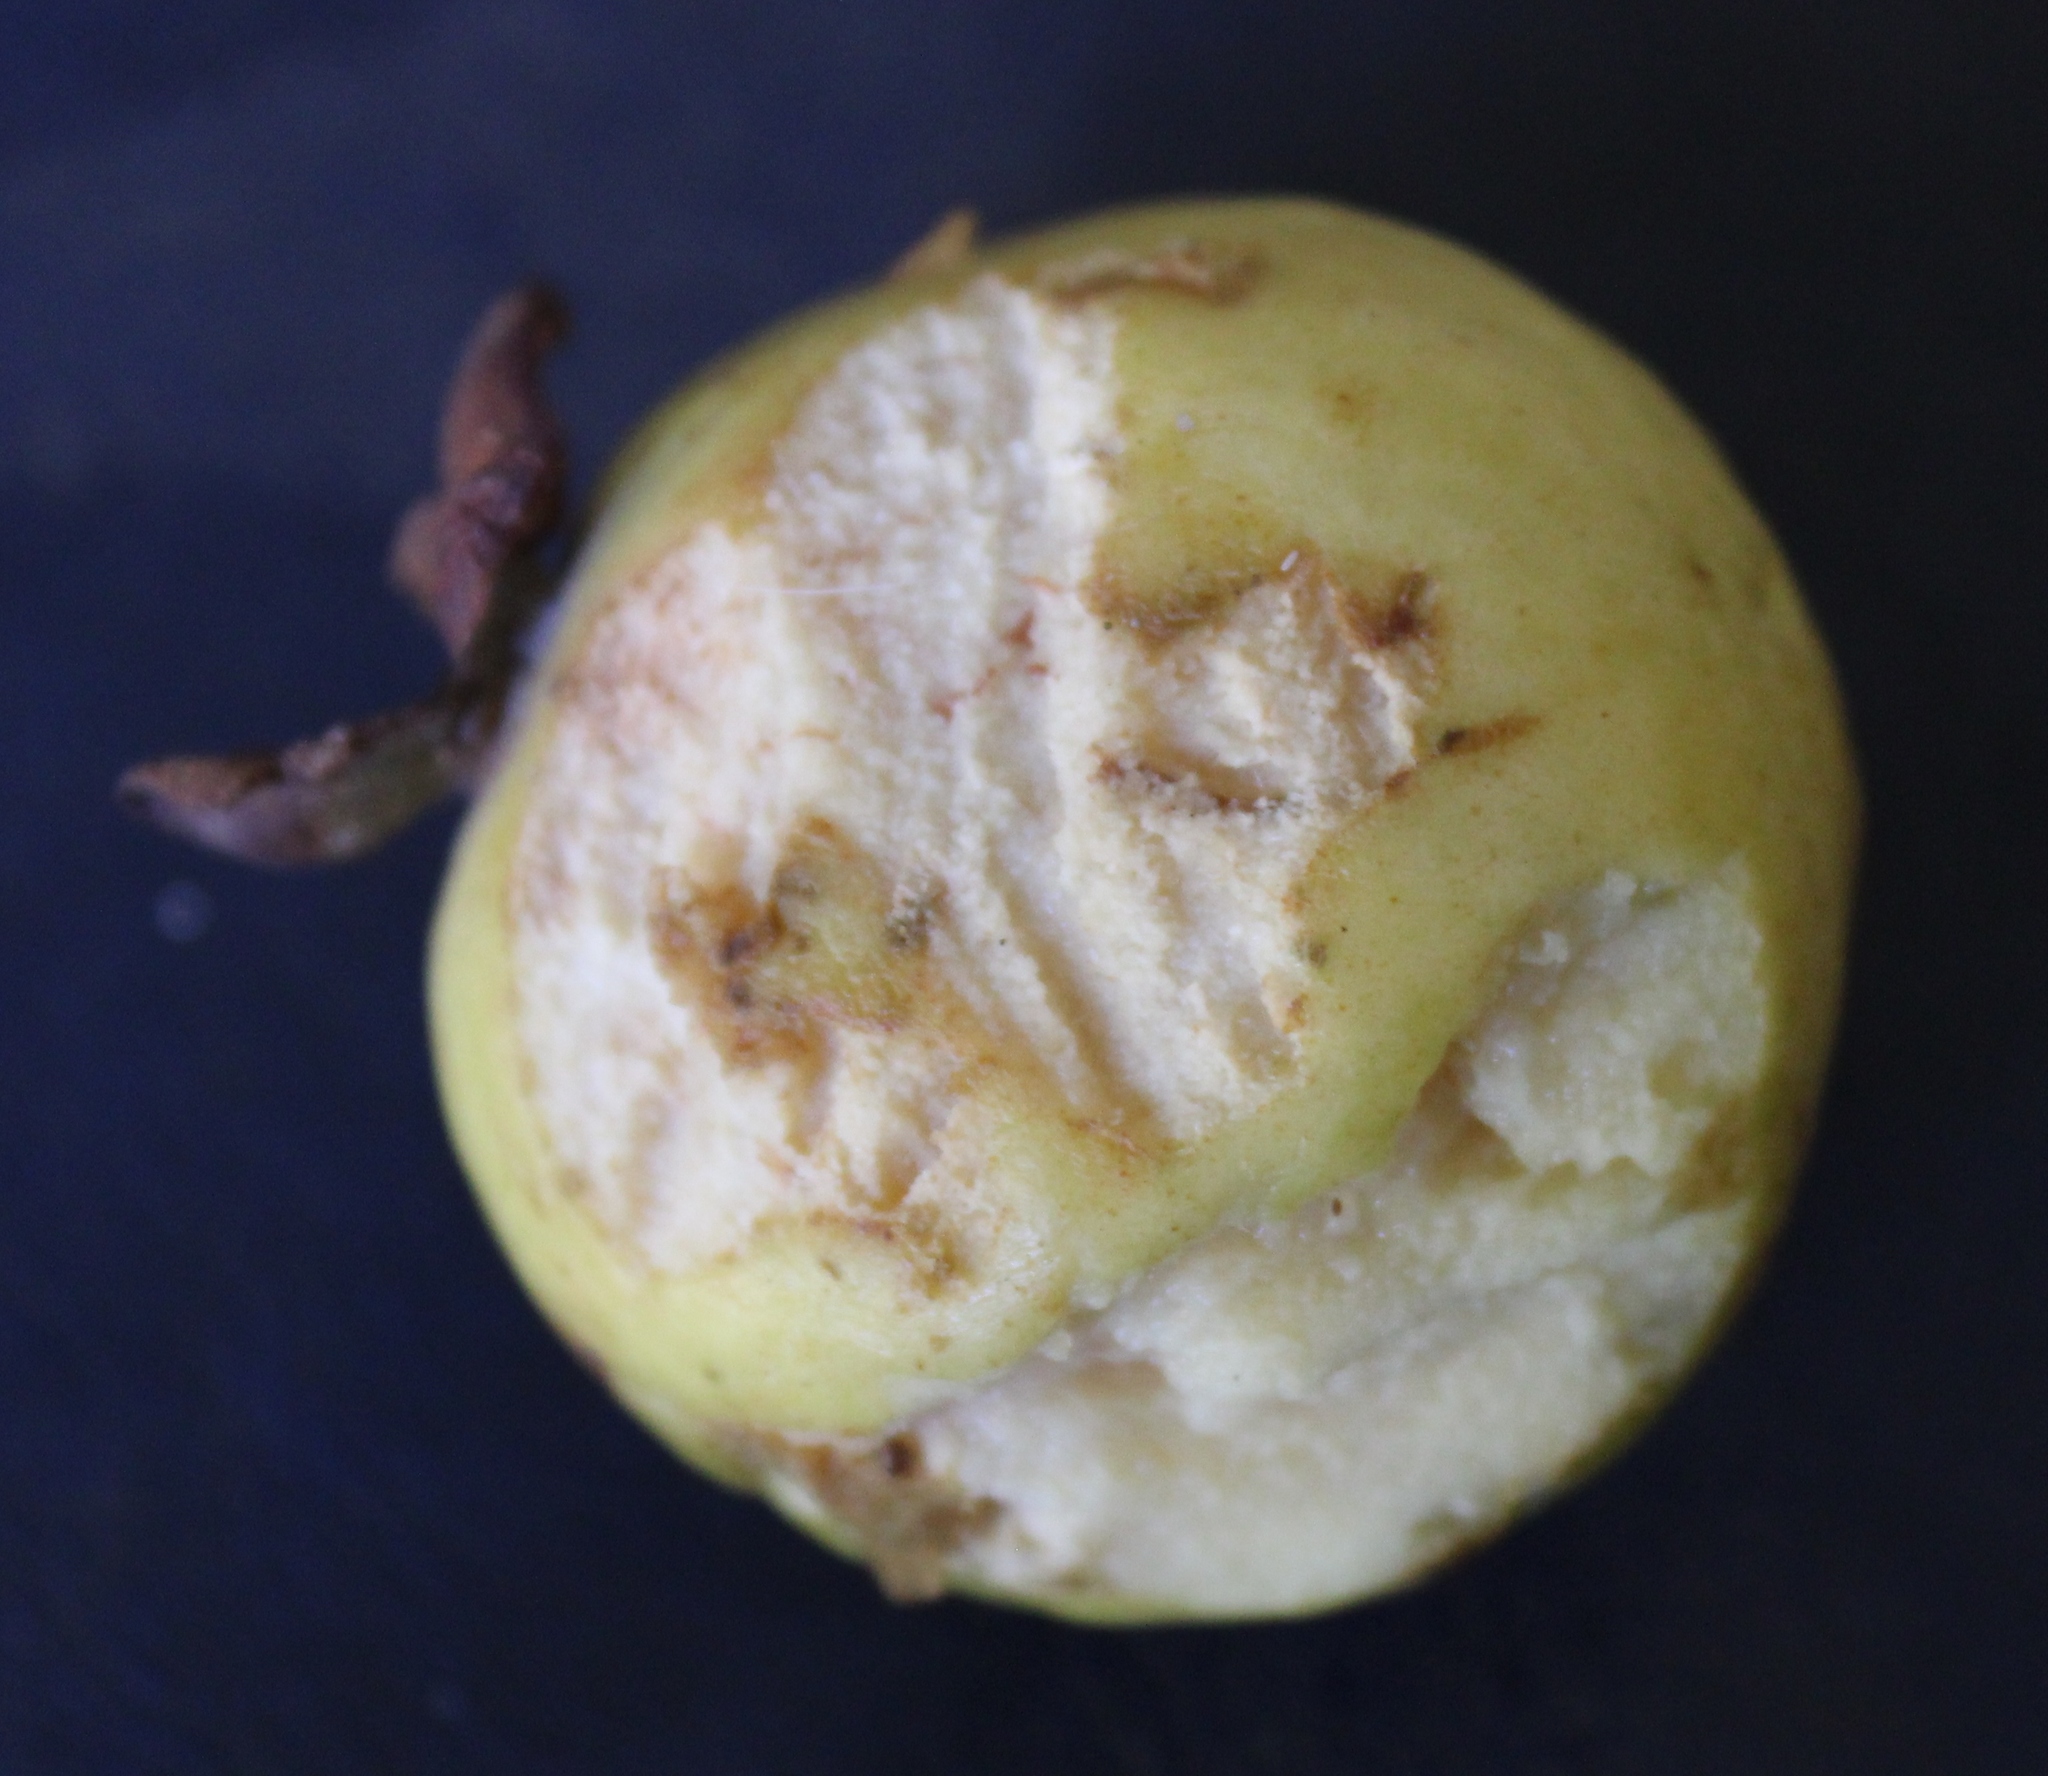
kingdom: Plantae
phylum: Tracheophyta
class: Magnoliopsida
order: Myrtales
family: Myrtaceae
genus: Psidium
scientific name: Psidium guajava
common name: Guava
